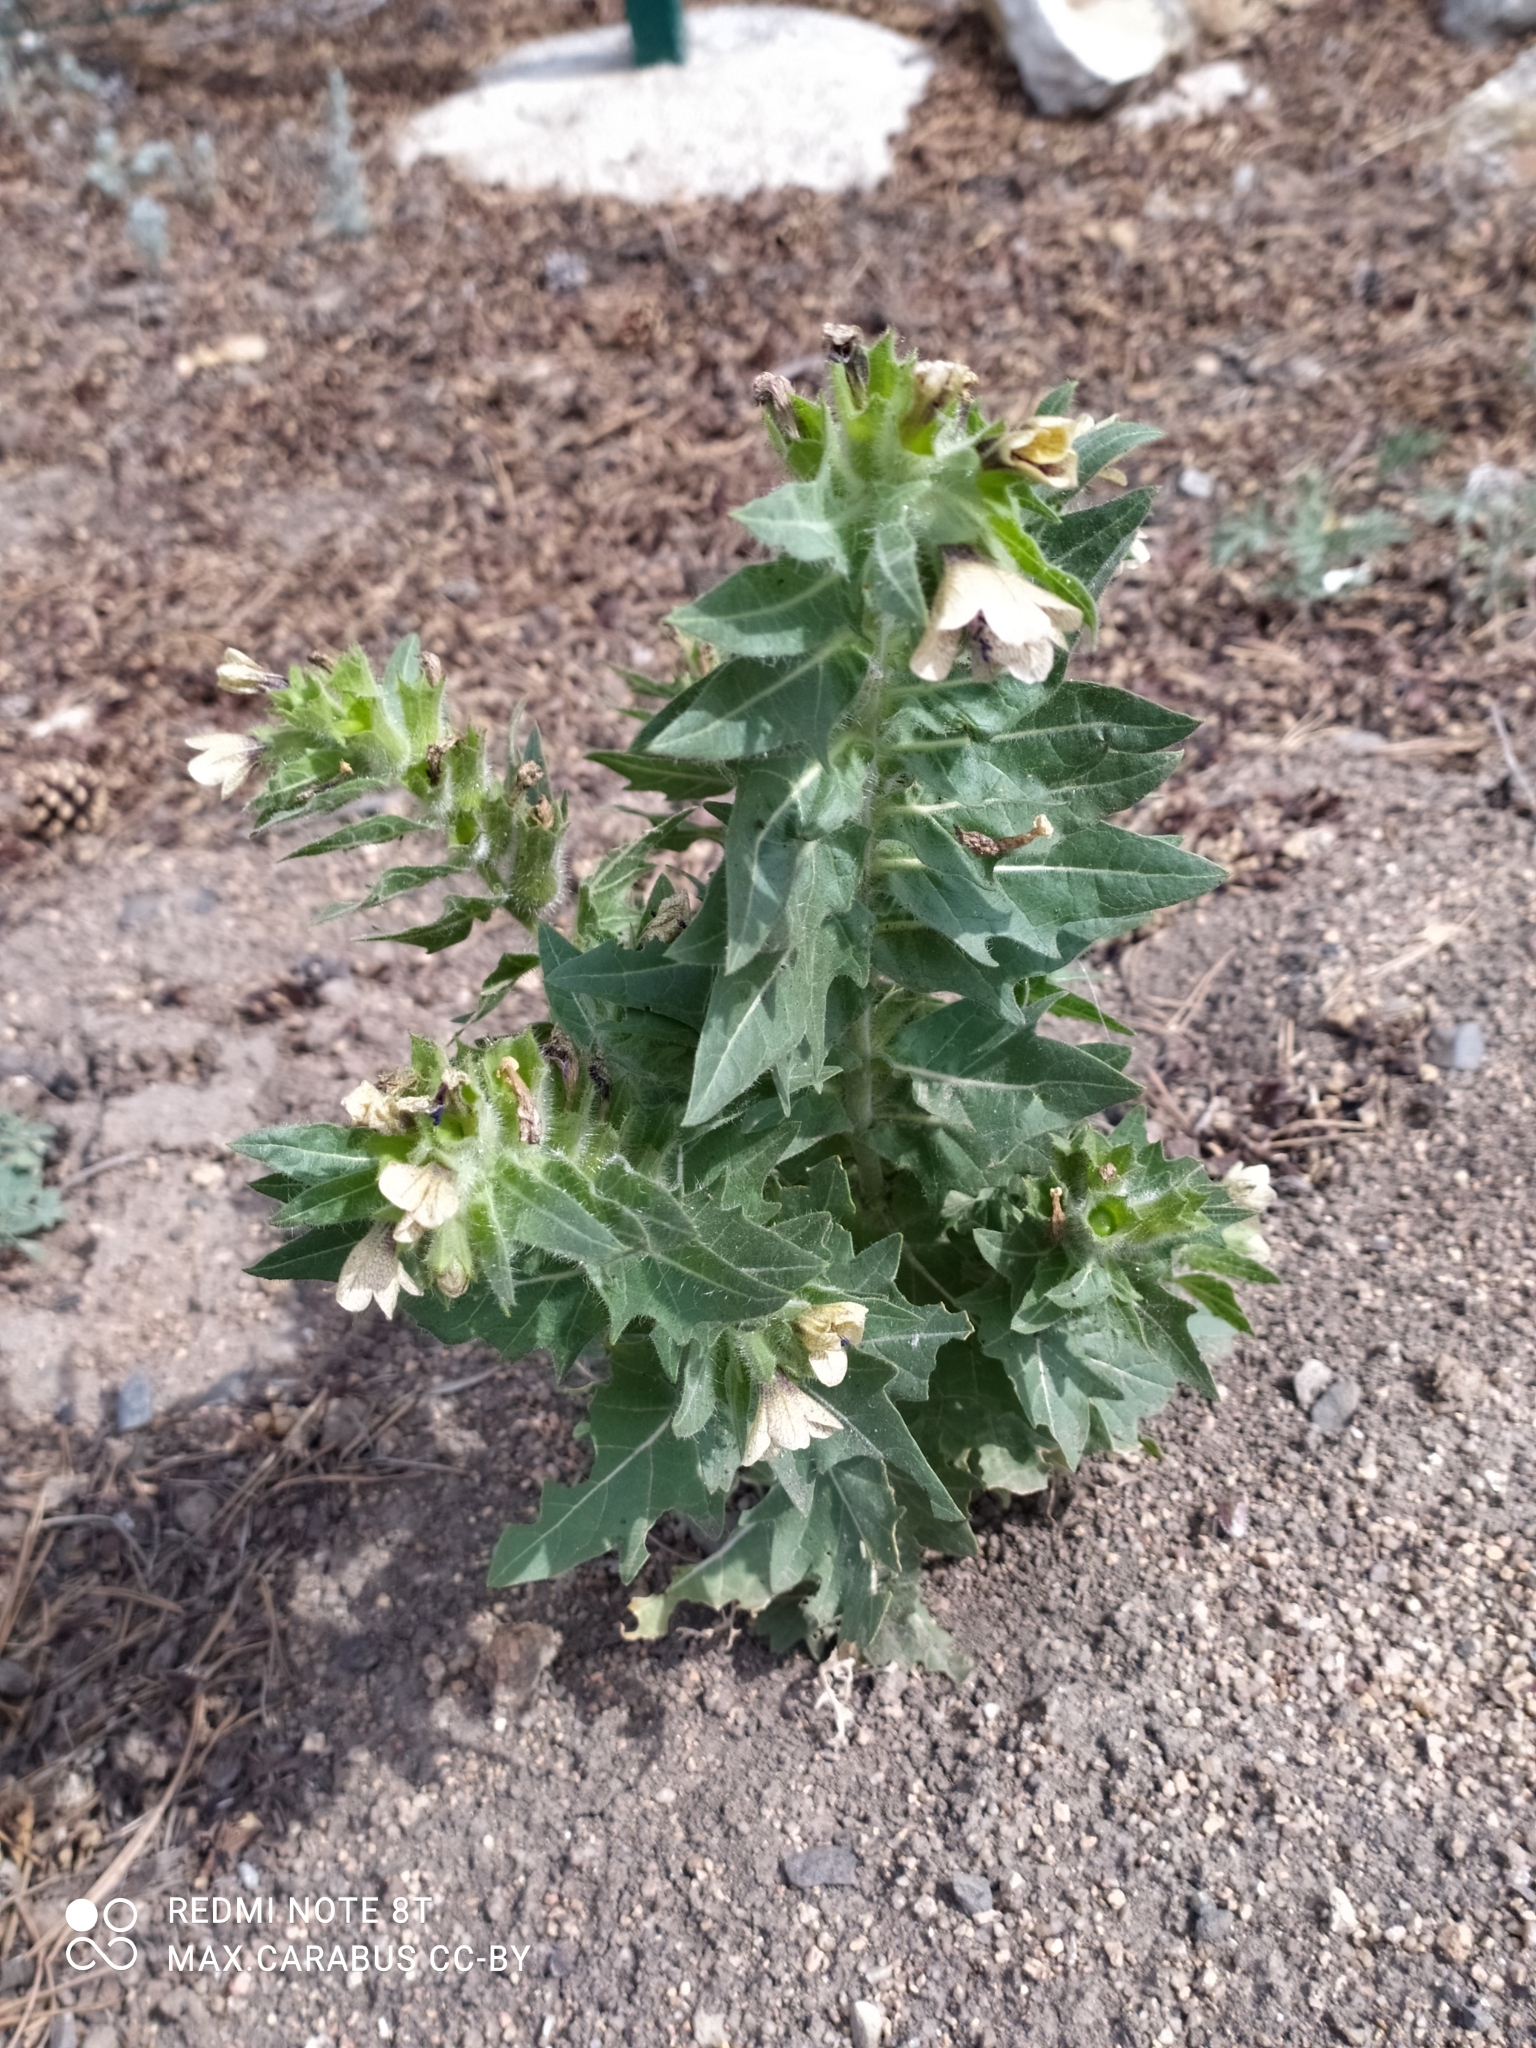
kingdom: Plantae
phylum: Tracheophyta
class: Magnoliopsida
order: Solanales
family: Solanaceae
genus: Hyoscyamus
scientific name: Hyoscyamus niger
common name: Henbane
